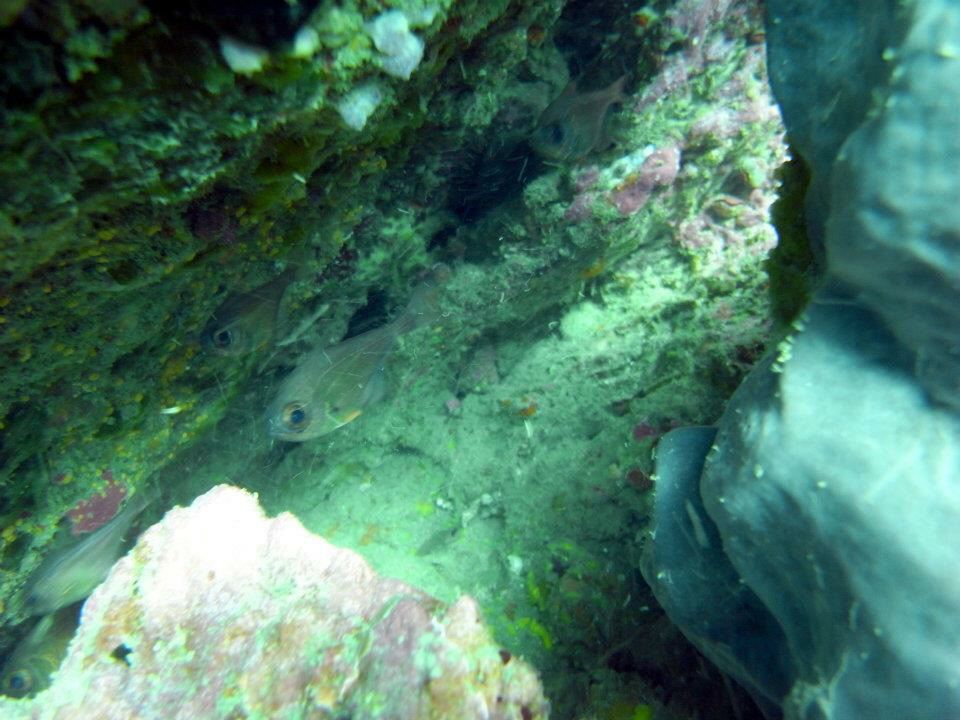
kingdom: Animalia
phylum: Chordata
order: Perciformes
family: Pempheridae
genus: Pempheris
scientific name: Pempheris adspersa
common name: Bigeye
